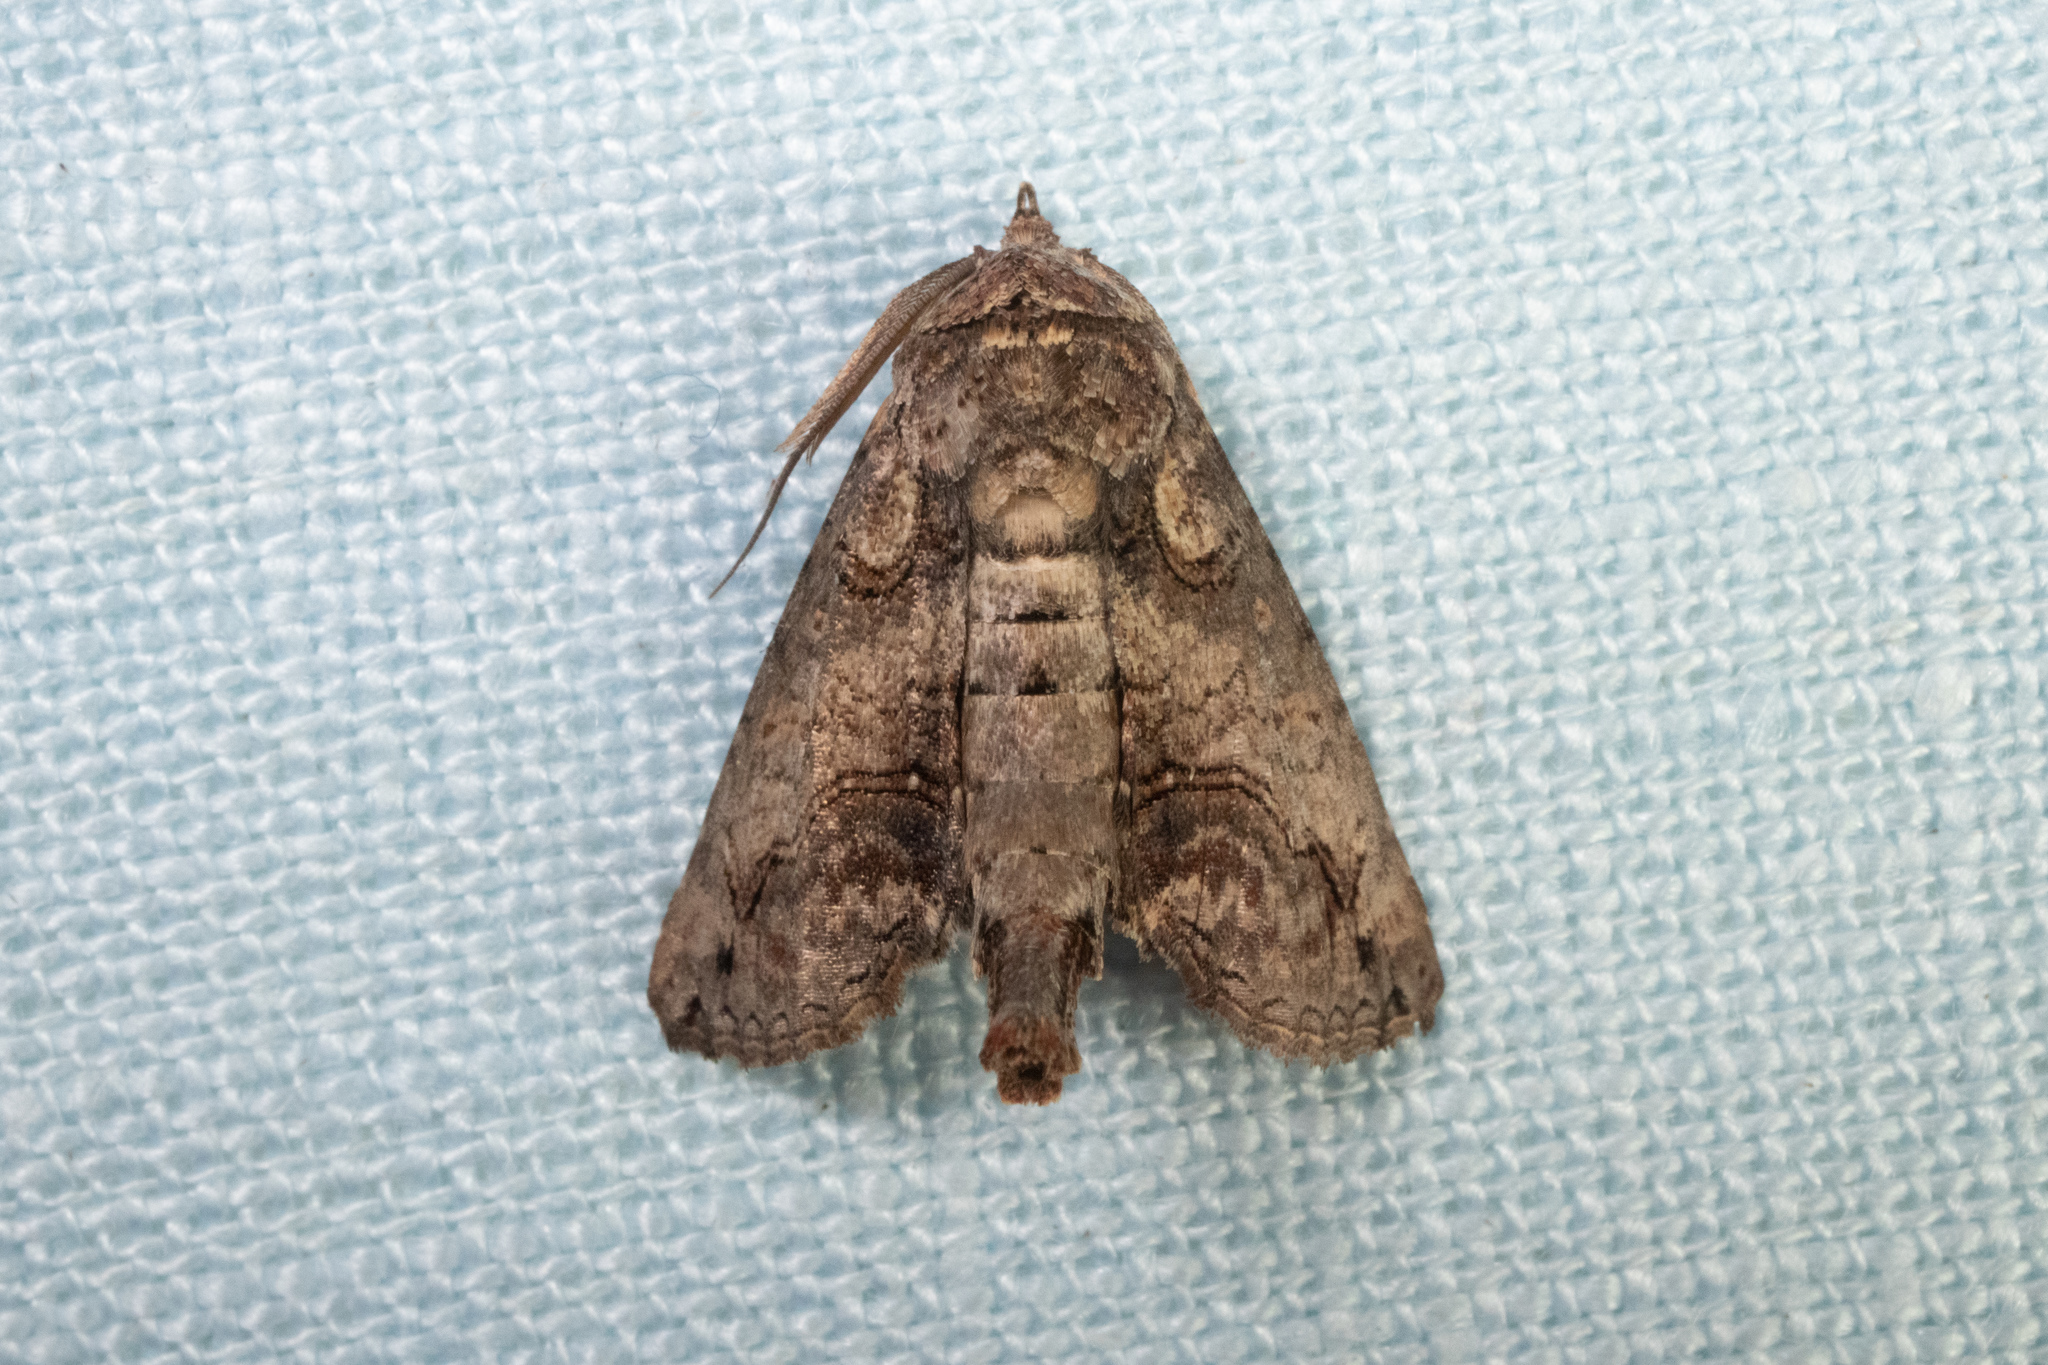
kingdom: Animalia
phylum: Arthropoda
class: Insecta
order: Lepidoptera
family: Euteliidae
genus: Paectes
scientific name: Paectes abrostoloides
